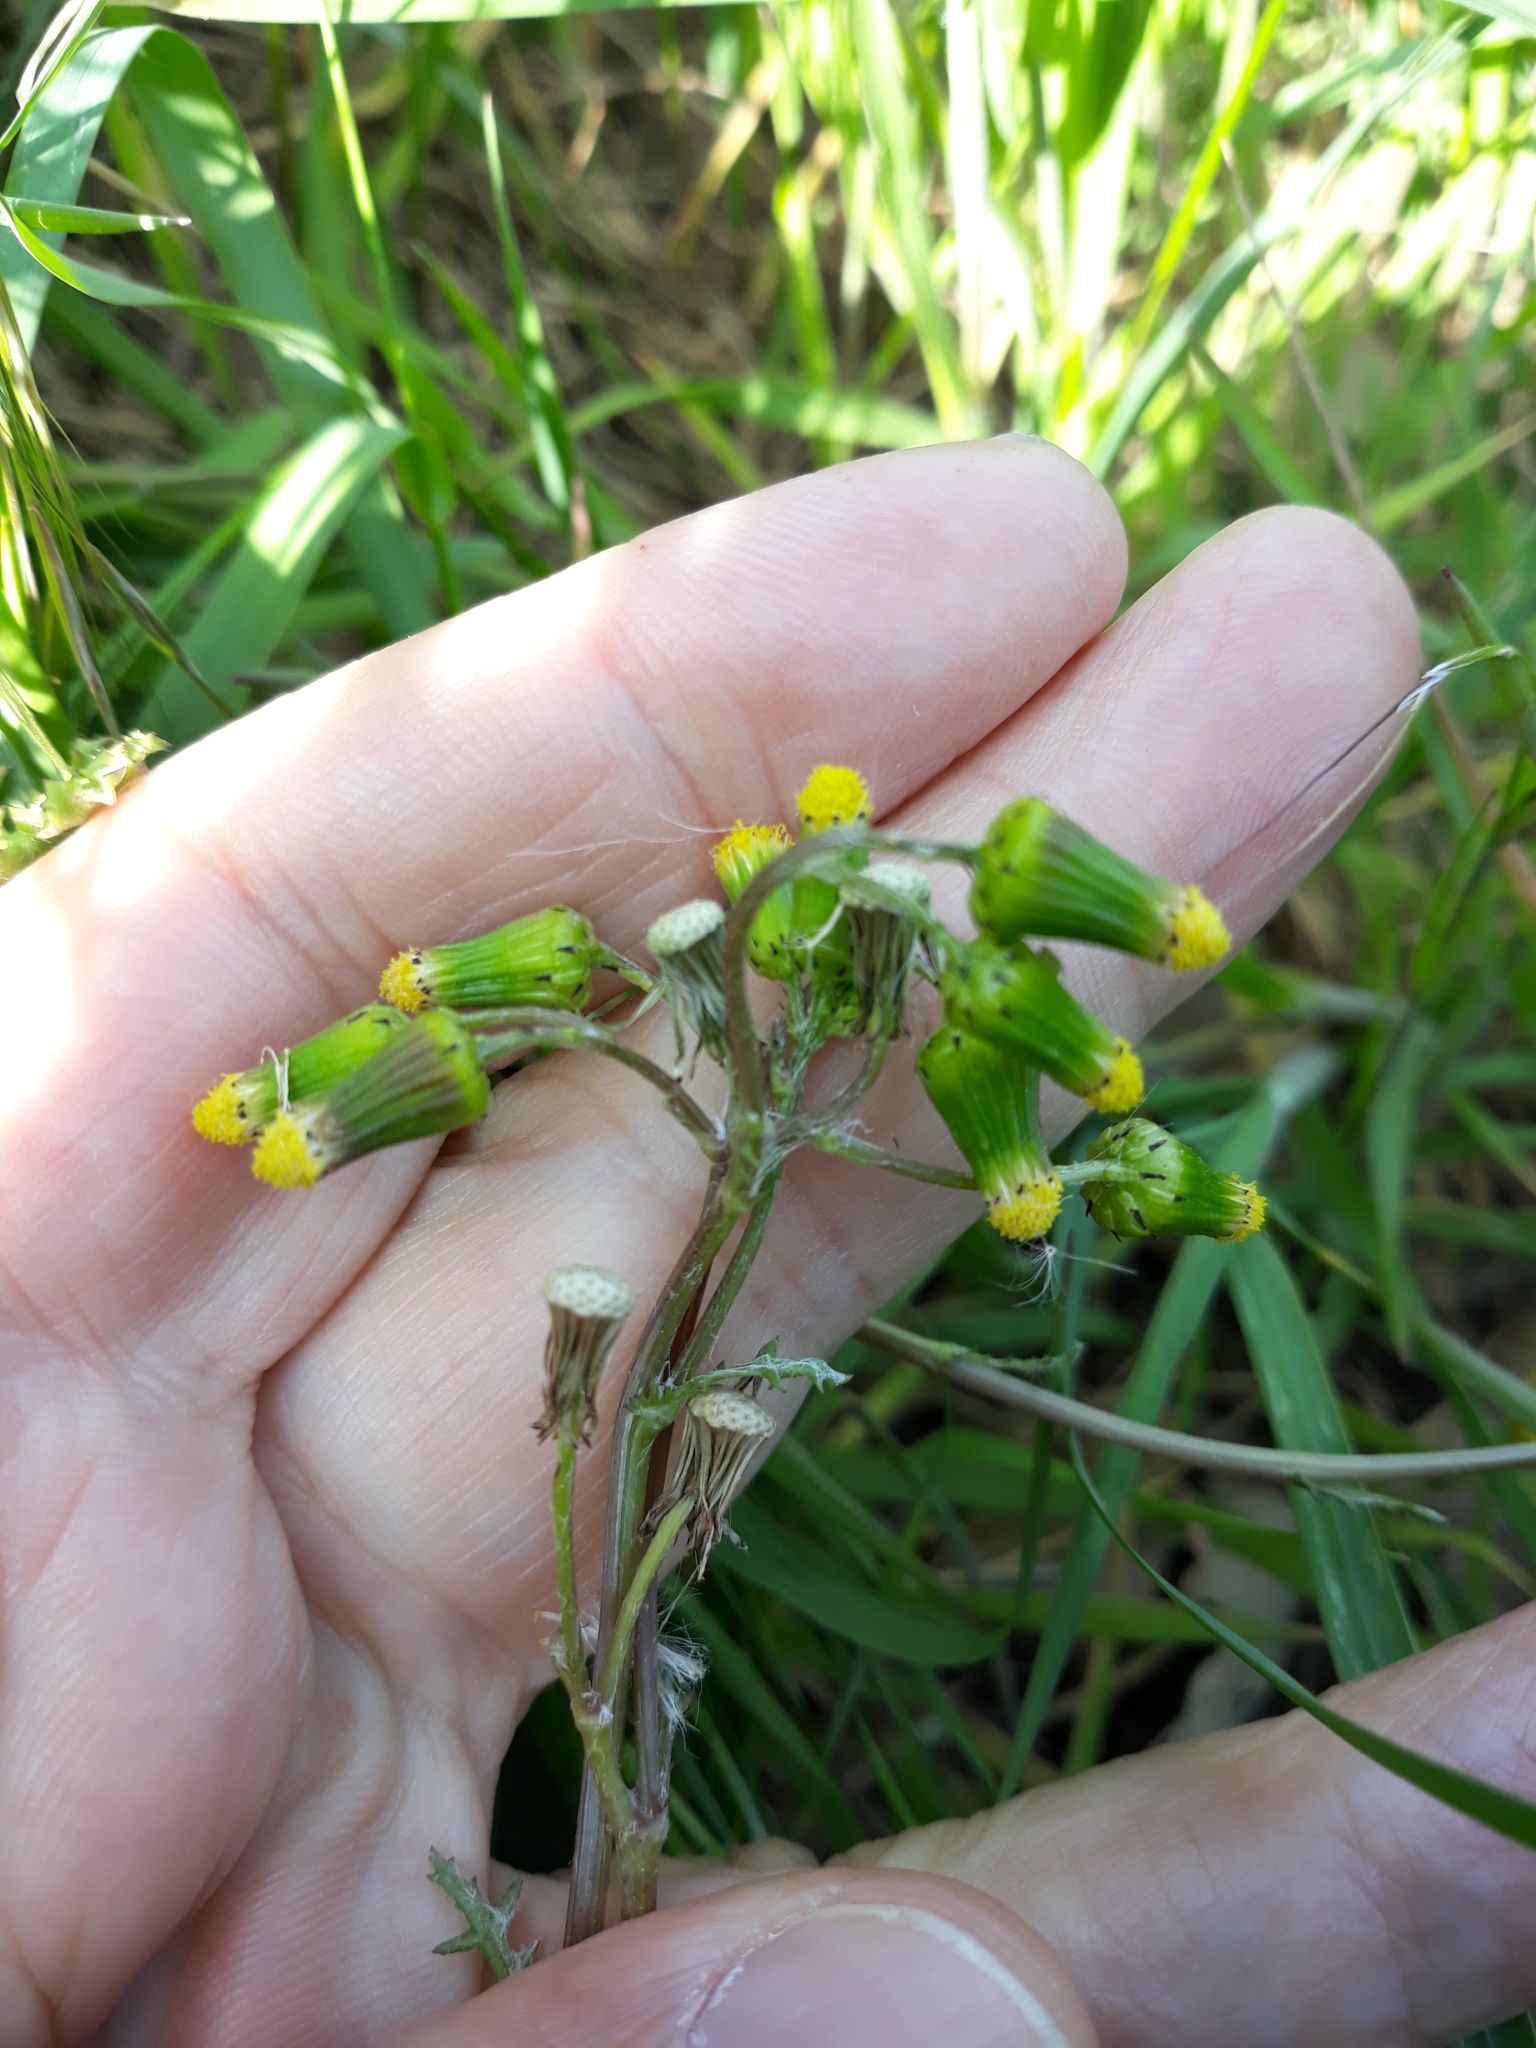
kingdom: Plantae
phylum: Tracheophyta
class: Magnoliopsida
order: Asterales
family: Asteraceae
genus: Senecio
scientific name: Senecio vulgaris
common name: Old-man-in-the-spring
